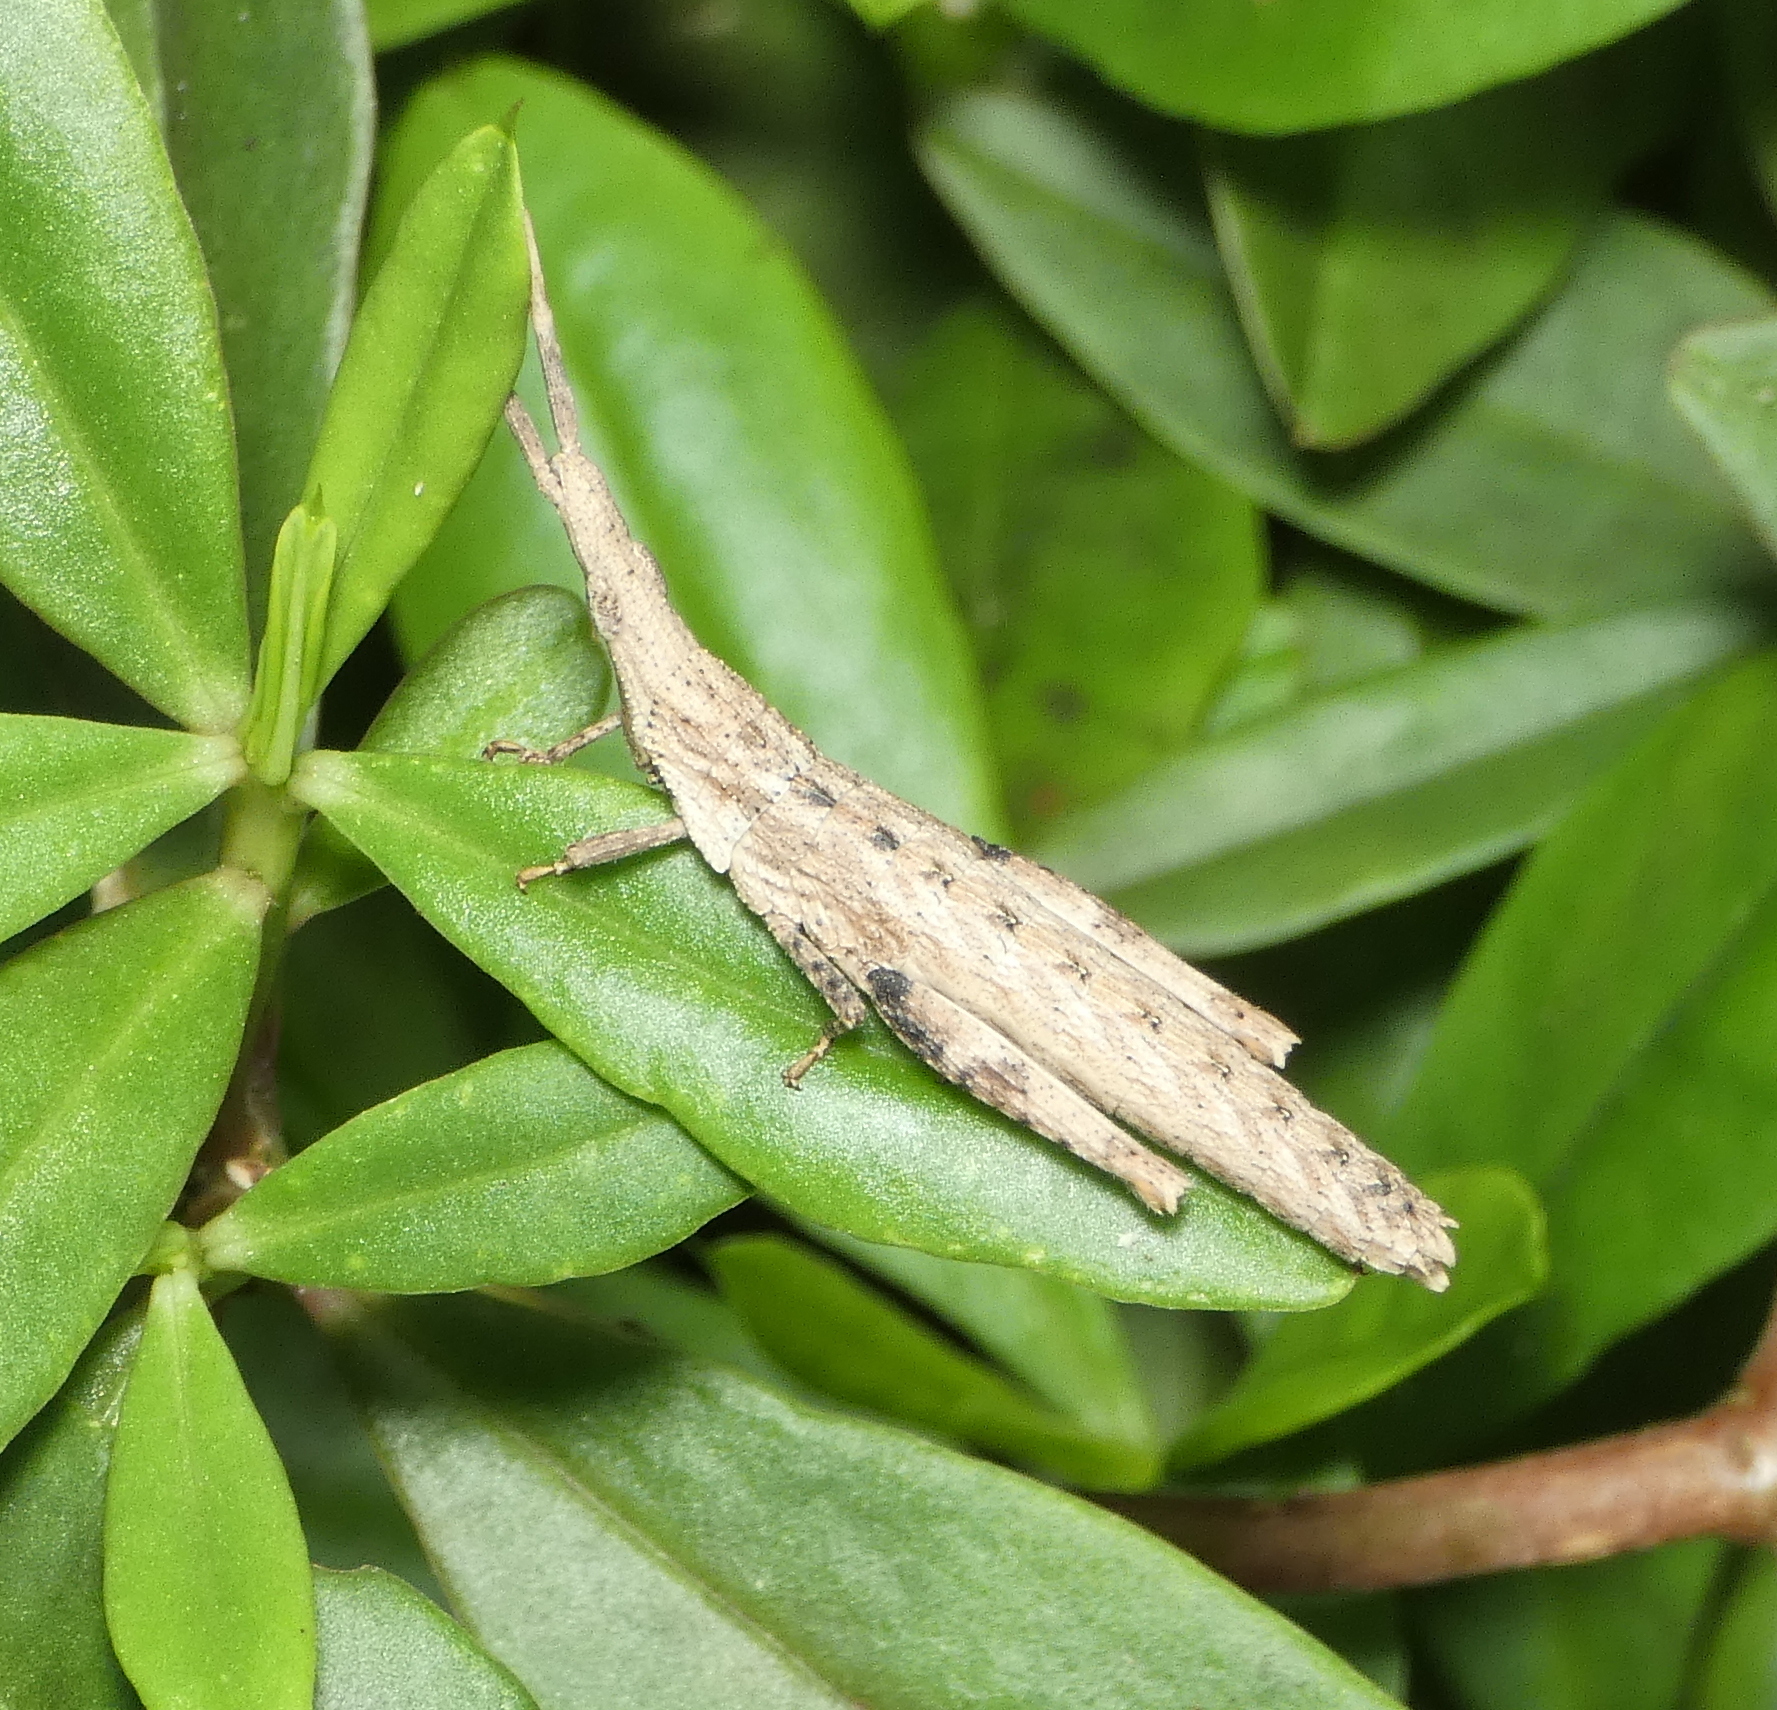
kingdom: Animalia
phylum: Arthropoda
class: Insecta
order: Orthoptera
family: Pyrgomorphidae
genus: Algete
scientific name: Algete brunneri
